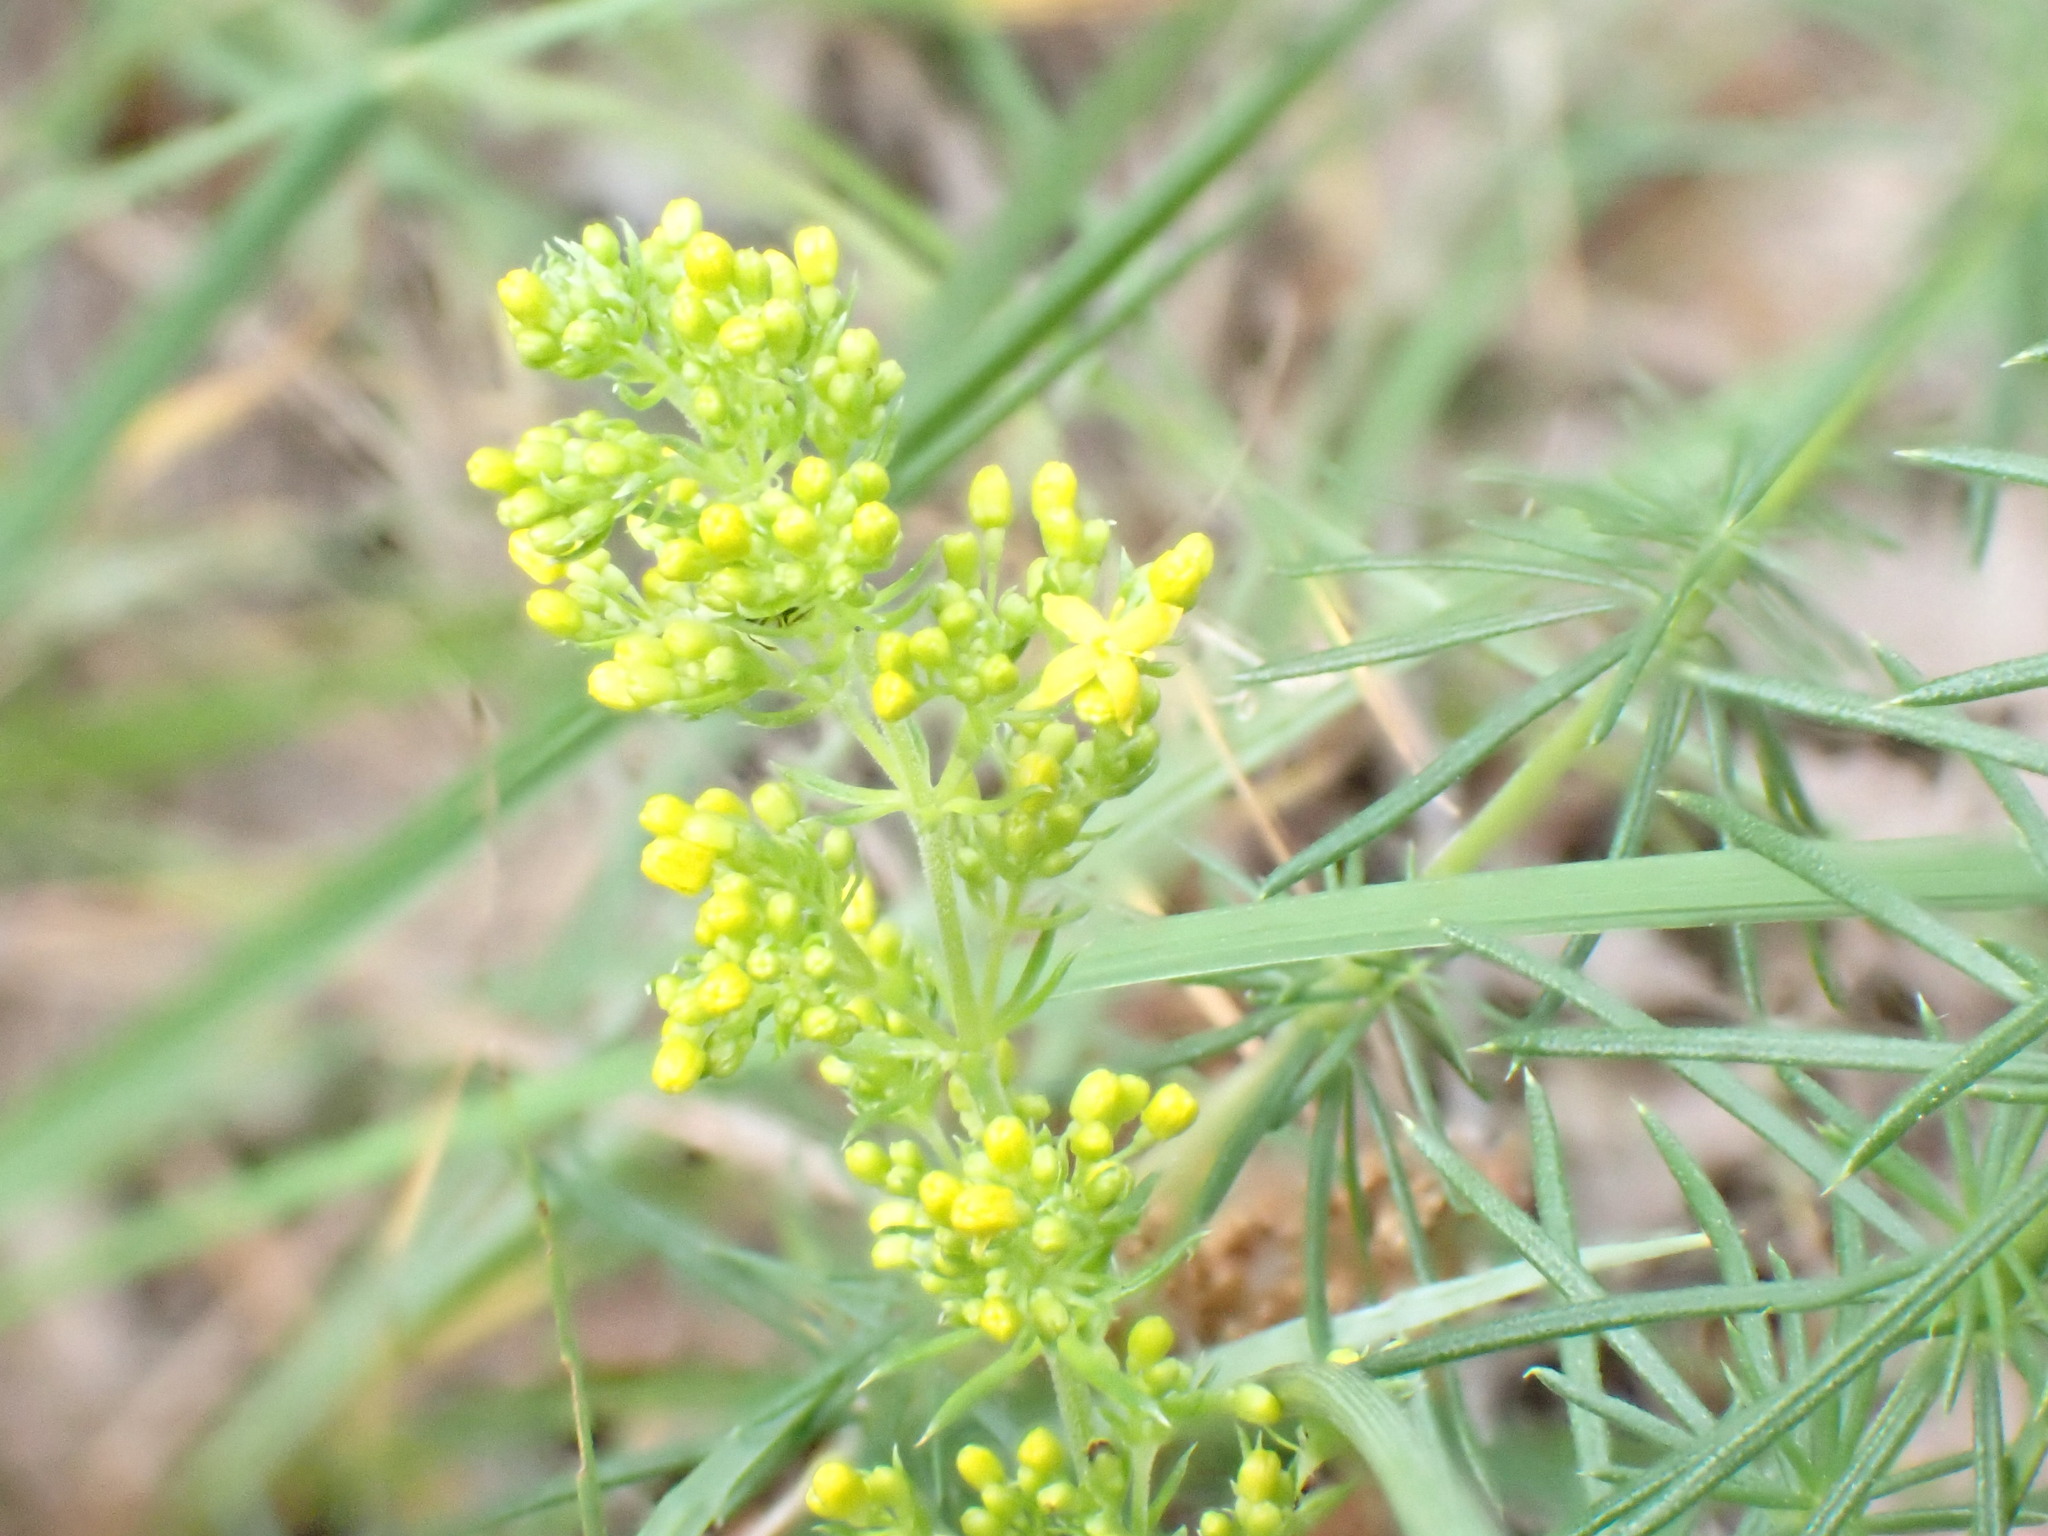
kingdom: Plantae
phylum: Tracheophyta
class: Magnoliopsida
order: Gentianales
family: Rubiaceae
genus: Galium
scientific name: Galium verum
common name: Lady's bedstraw
